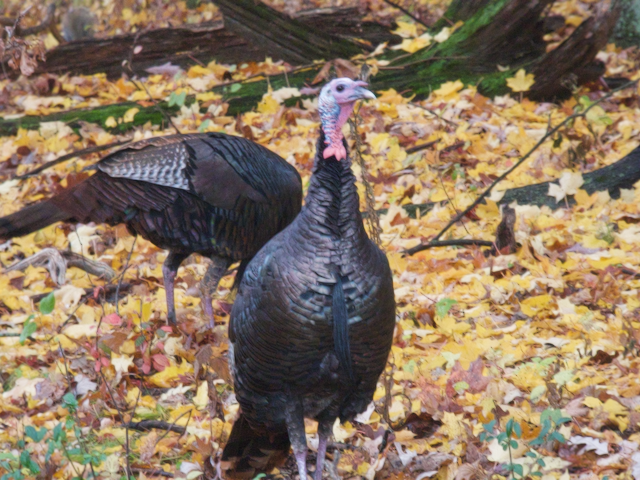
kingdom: Animalia
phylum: Chordata
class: Aves
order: Galliformes
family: Phasianidae
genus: Meleagris
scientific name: Meleagris gallopavo
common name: Wild turkey
